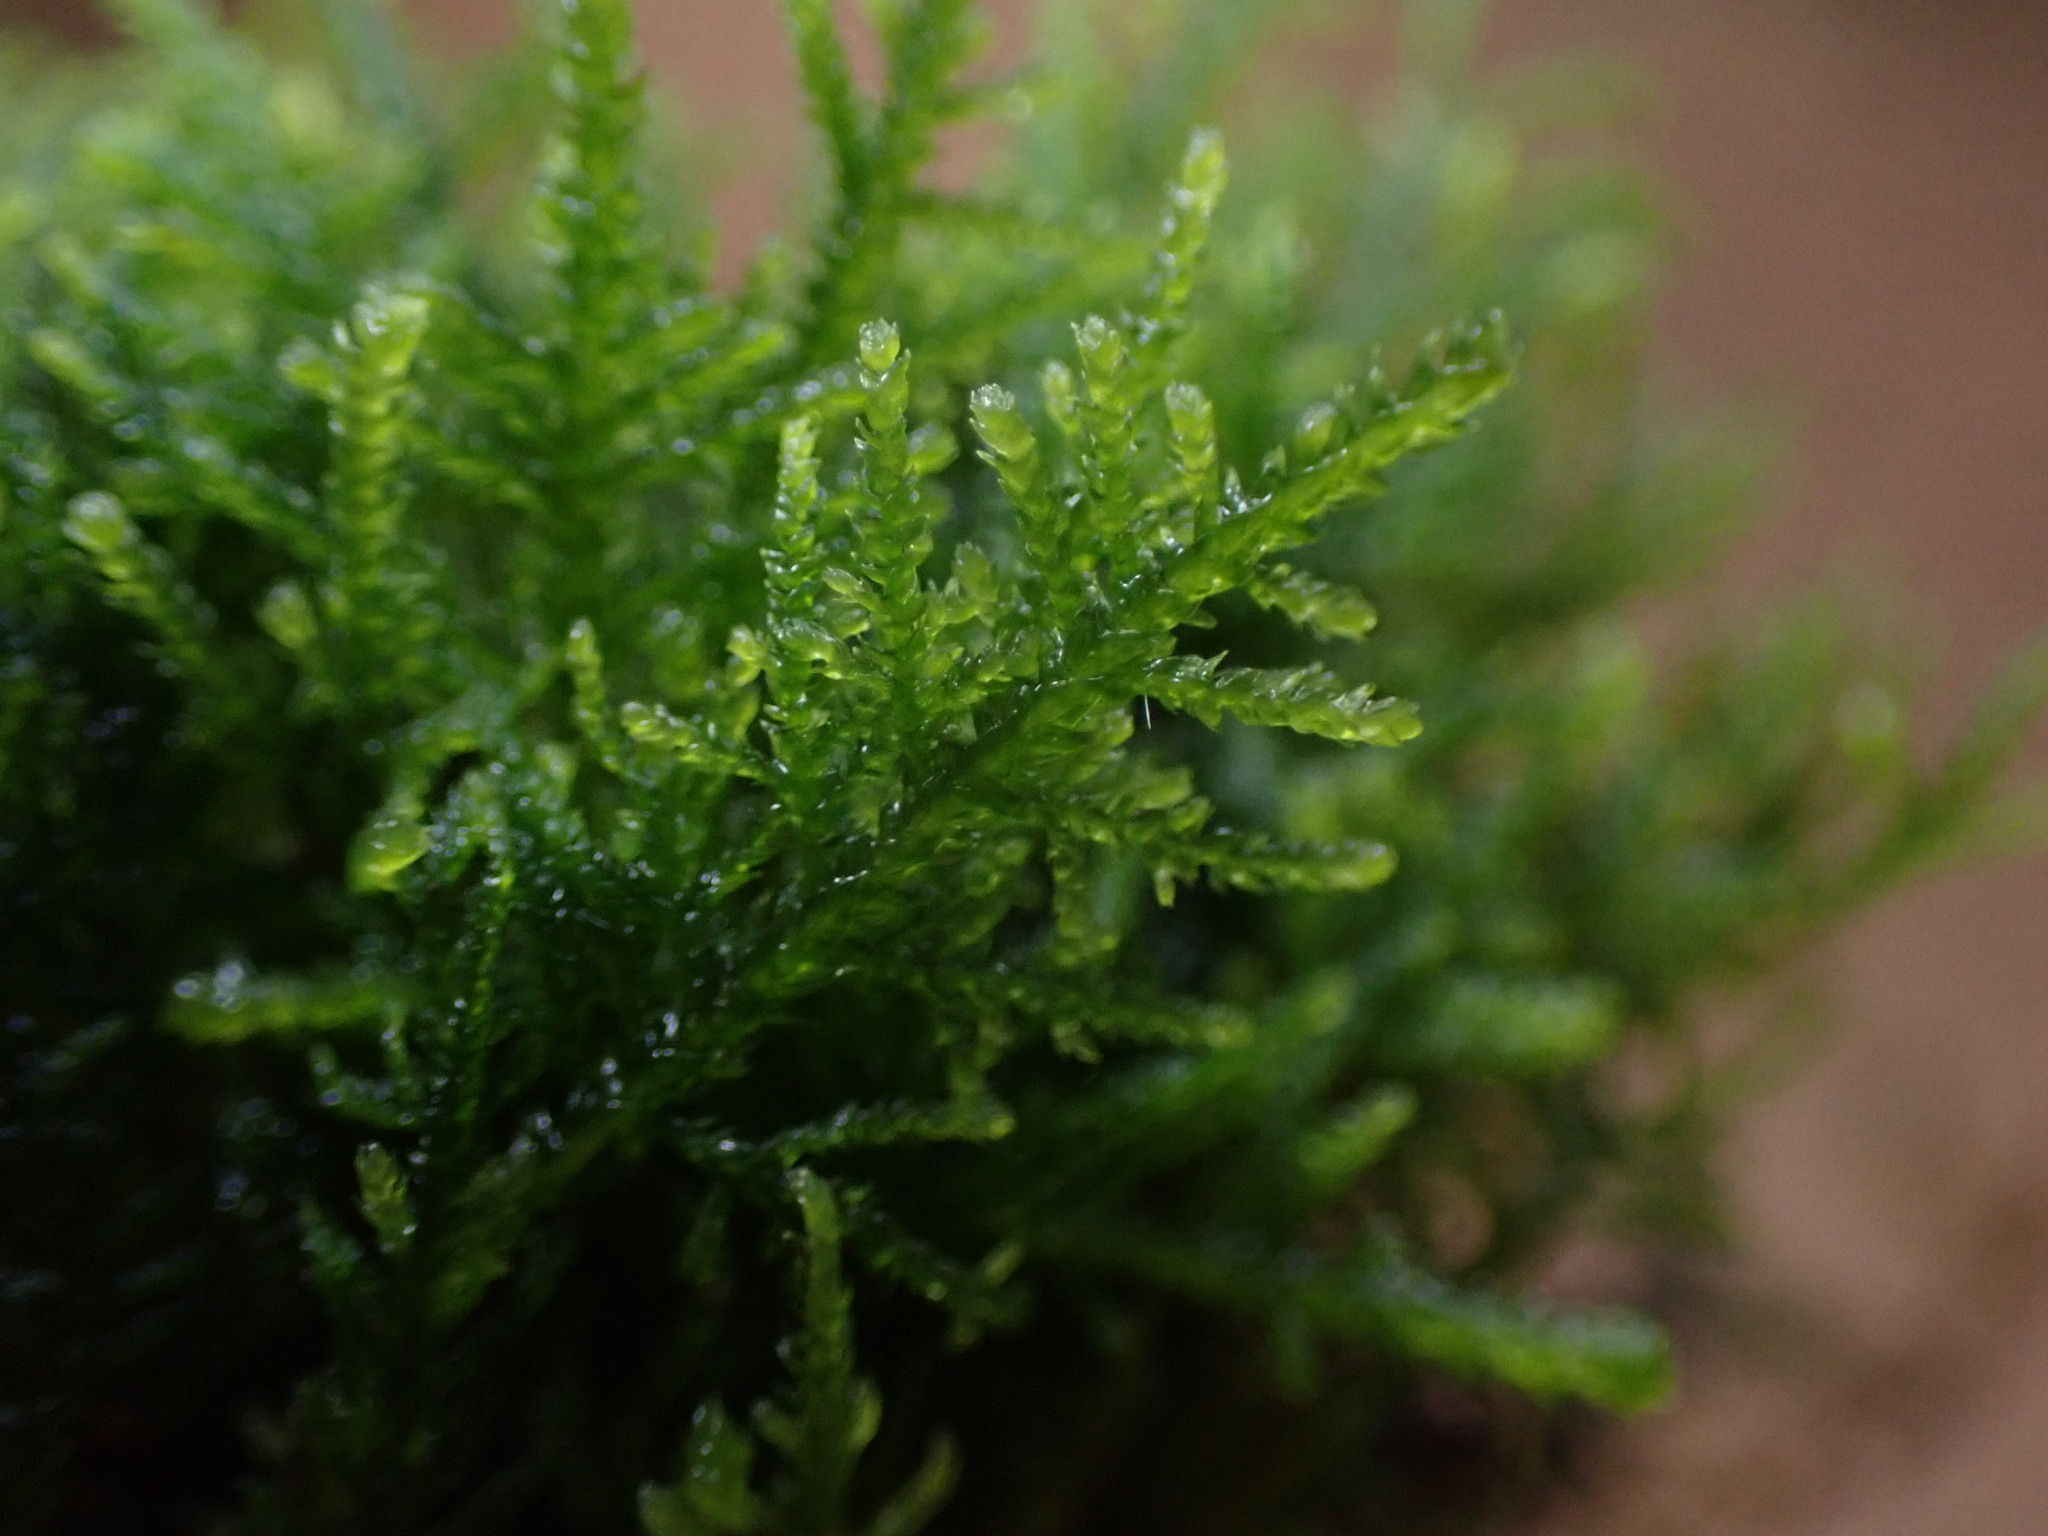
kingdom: Plantae
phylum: Bryophyta
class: Bryopsida
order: Hypnales
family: Lembophyllaceae
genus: Heterocladium
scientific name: Heterocladium macounii
